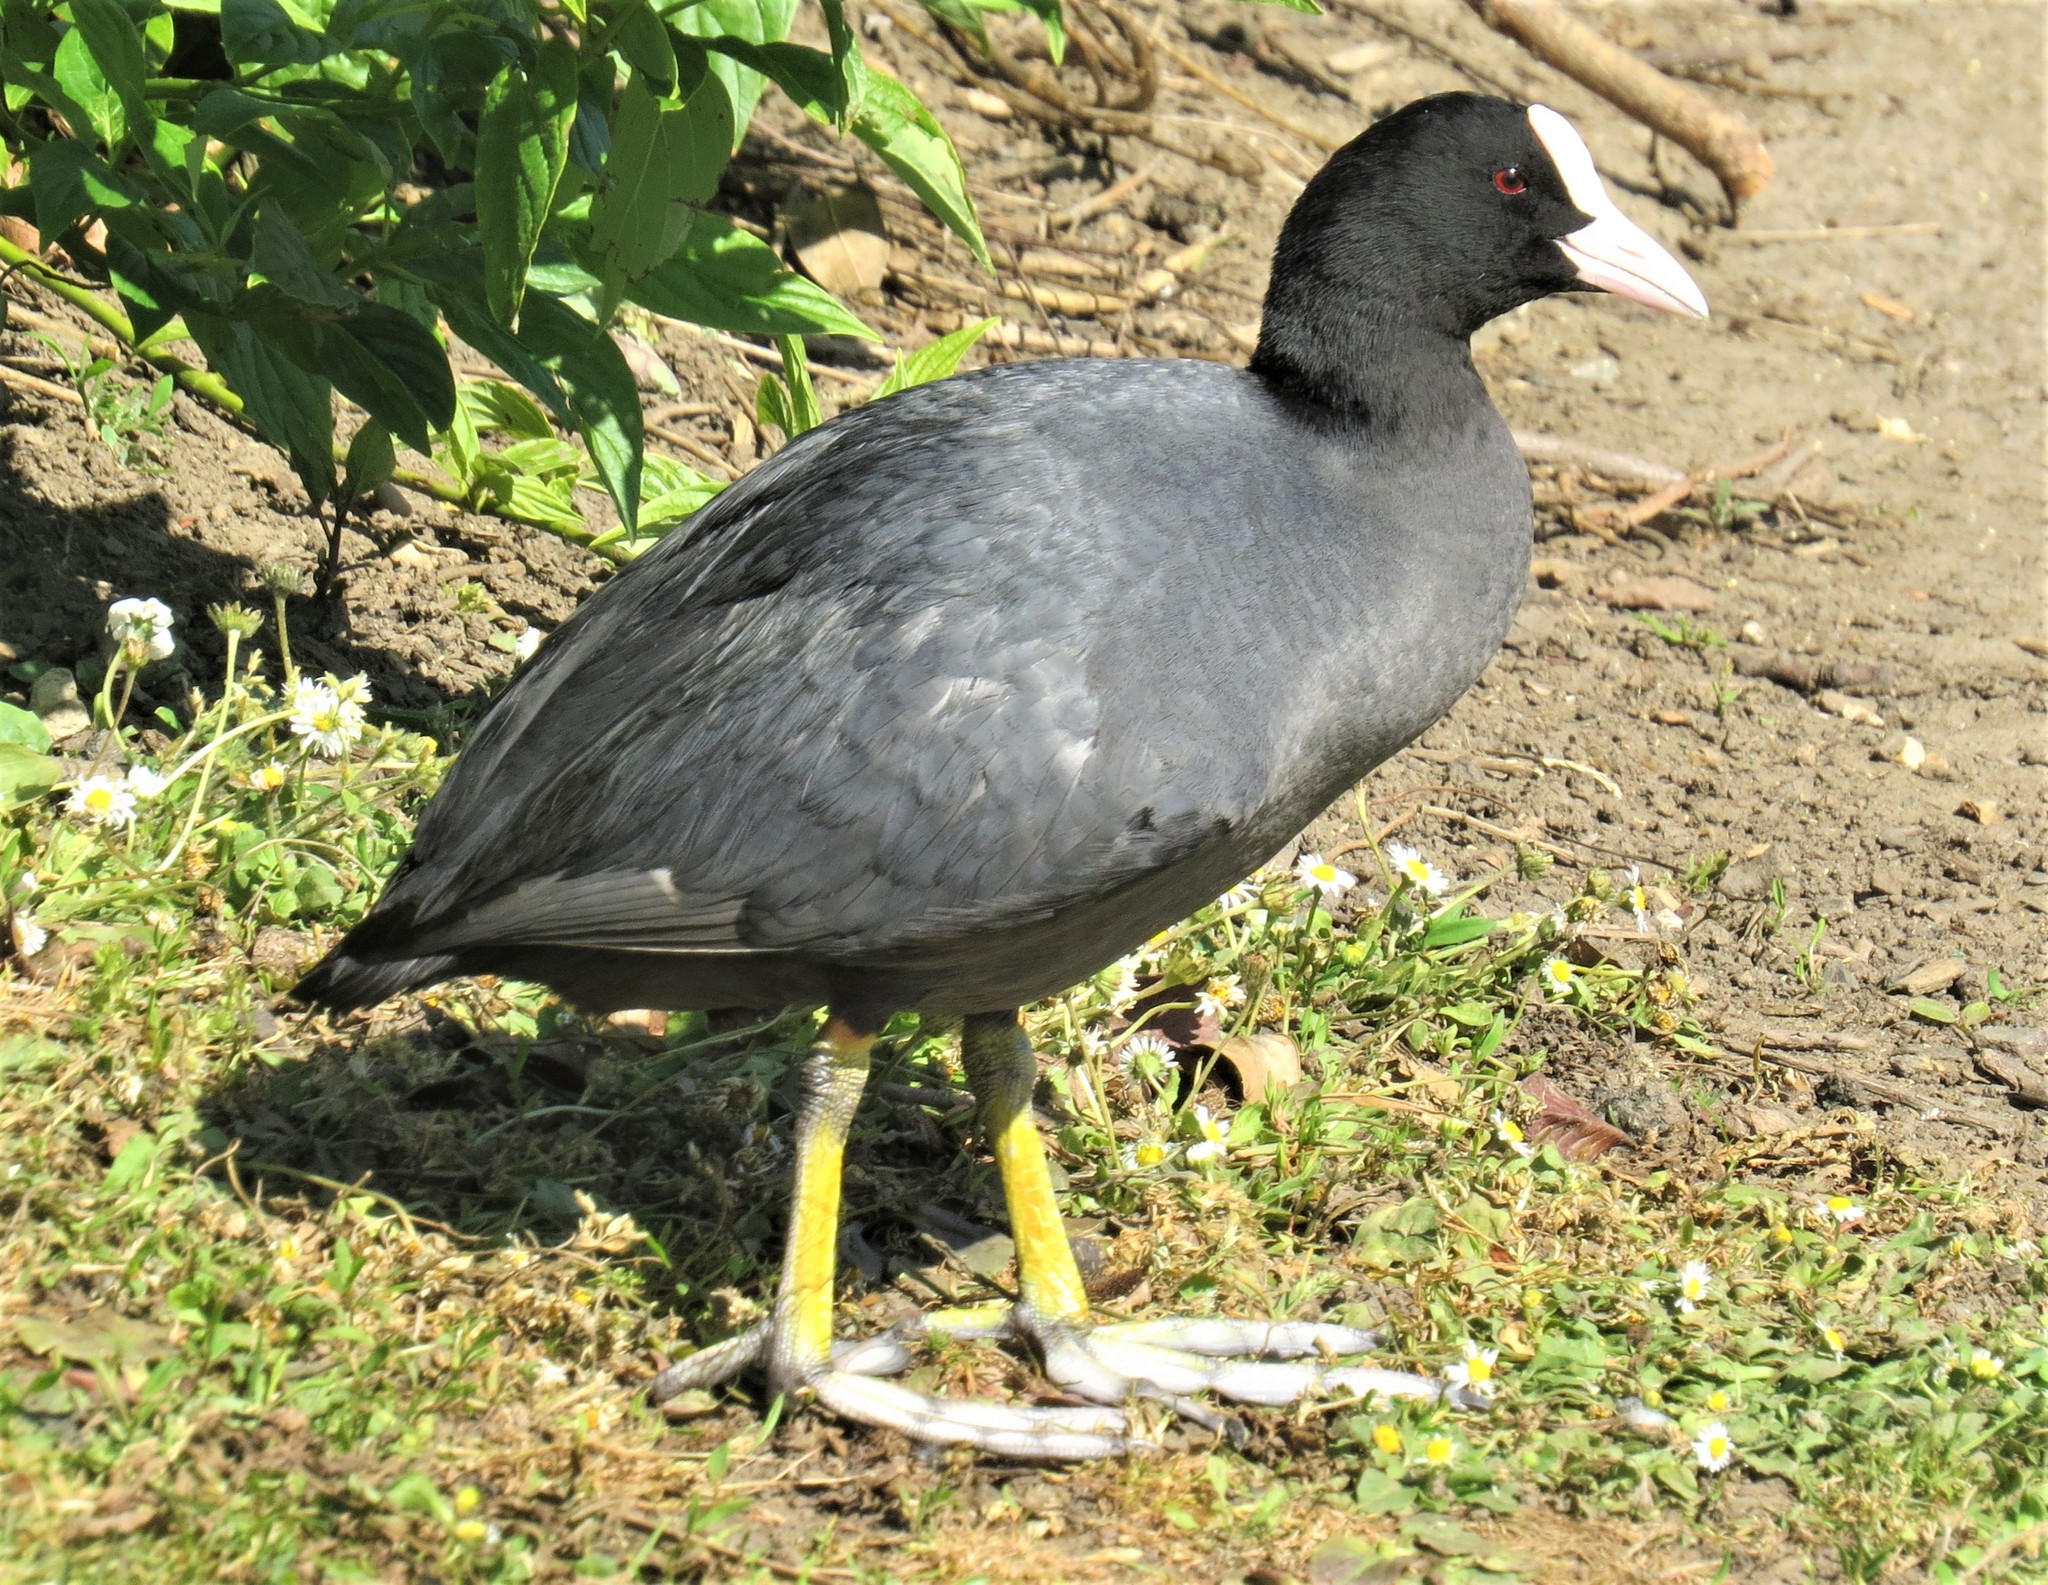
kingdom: Animalia
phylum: Chordata
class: Aves
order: Gruiformes
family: Rallidae
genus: Fulica
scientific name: Fulica atra
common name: Eurasian coot
